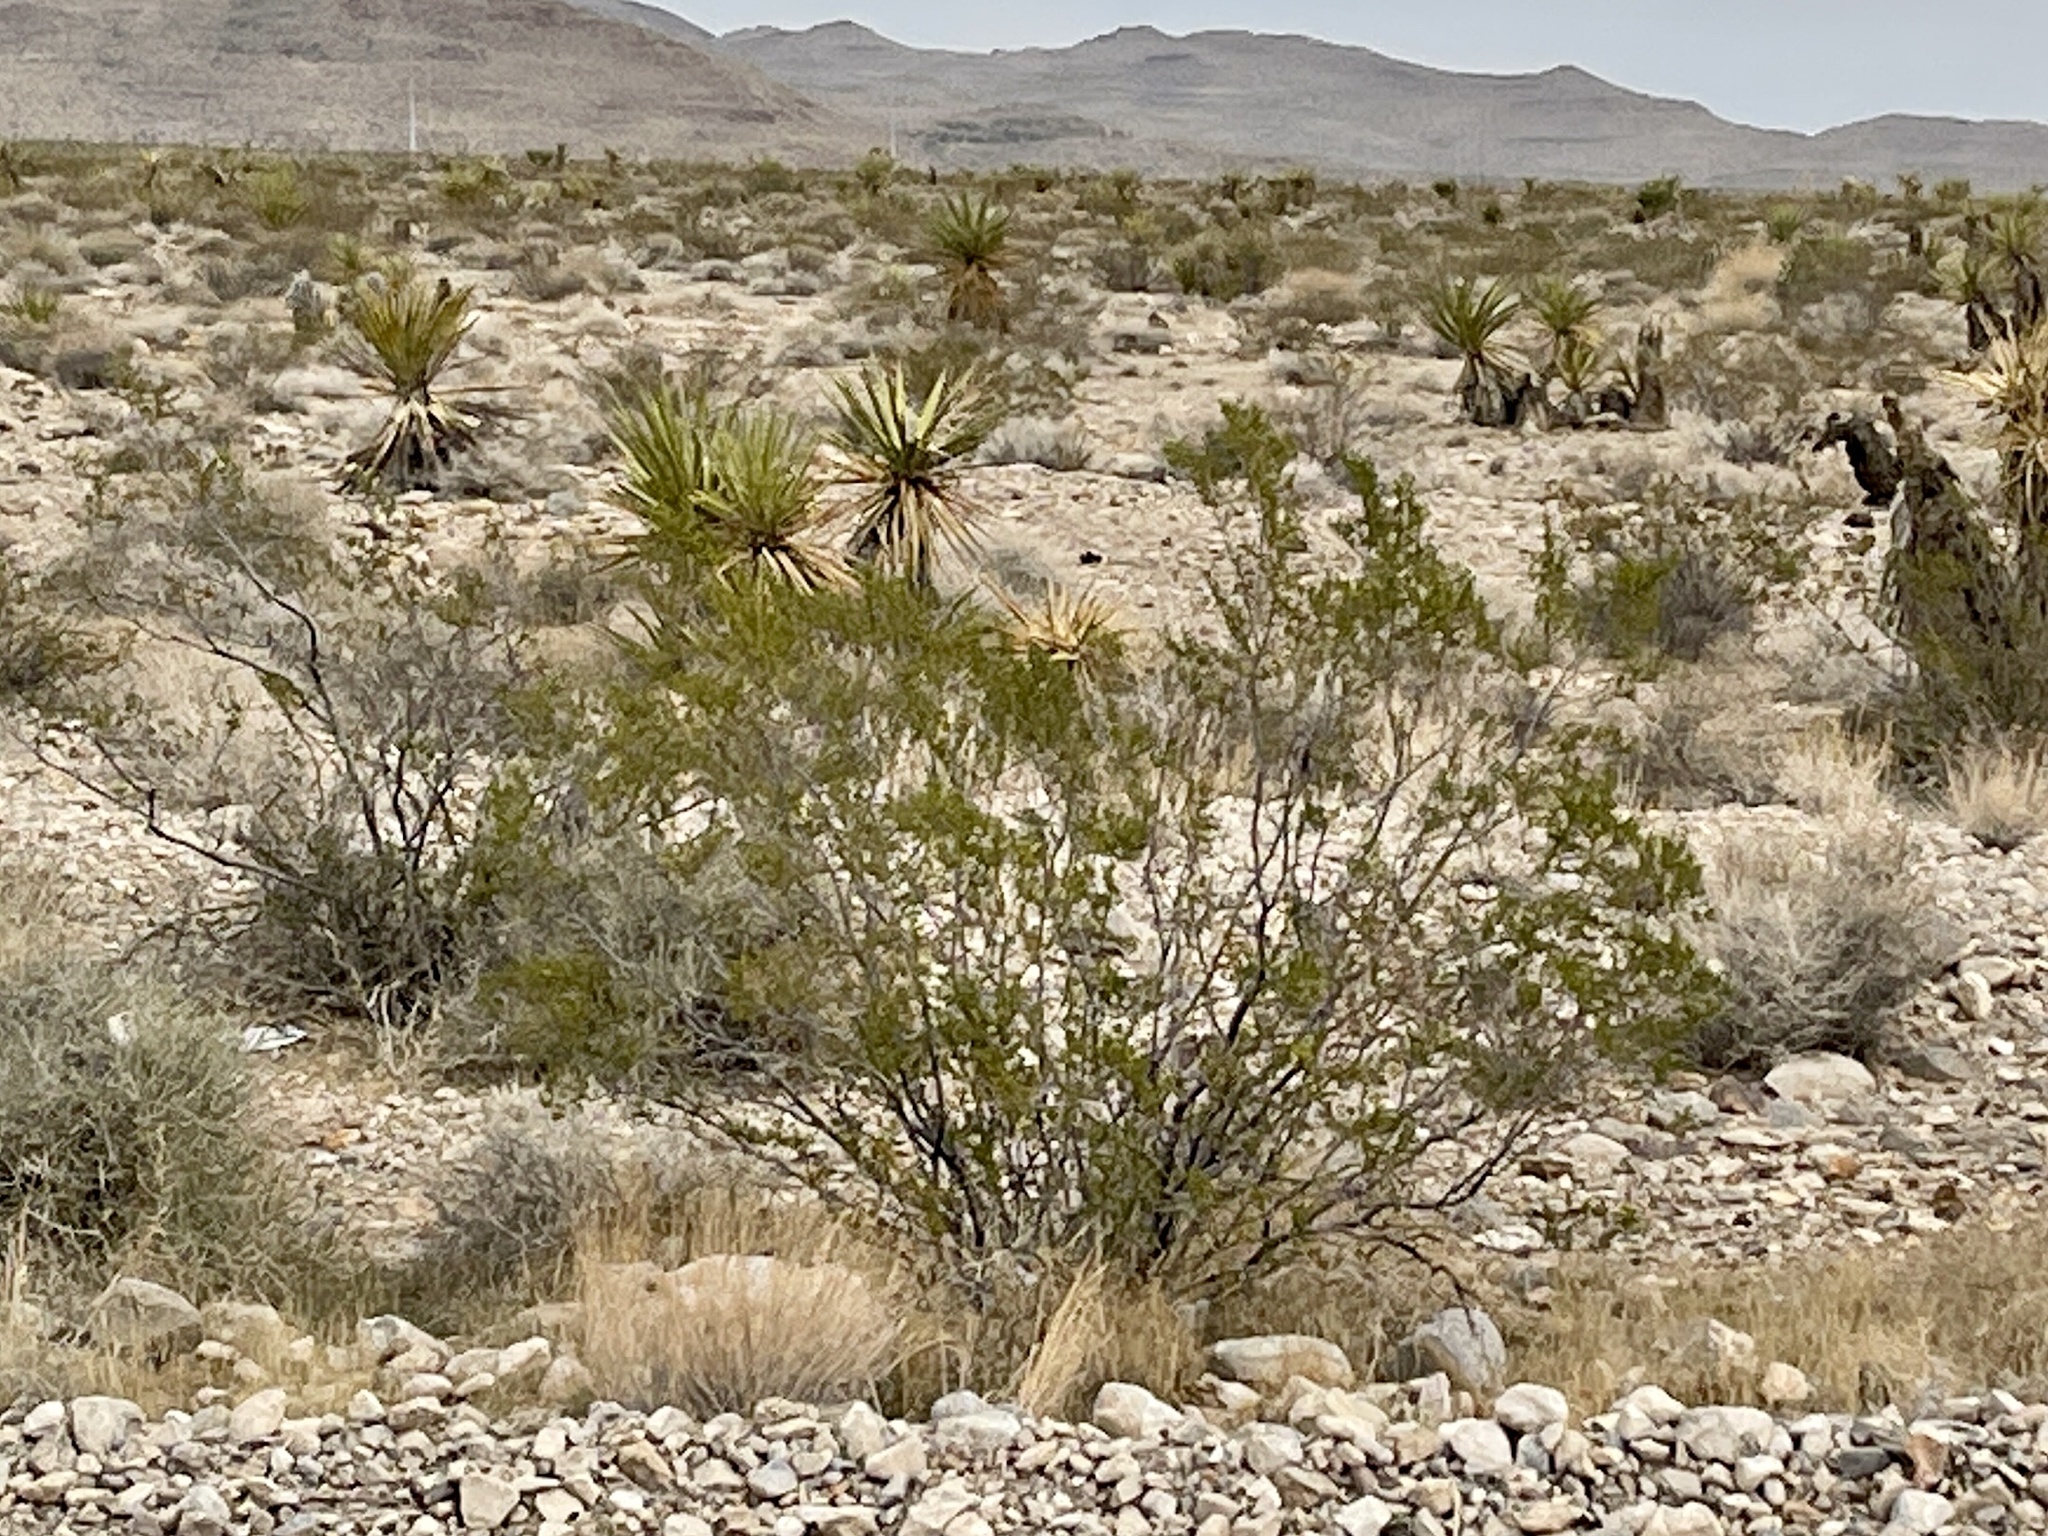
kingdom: Plantae
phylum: Tracheophyta
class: Magnoliopsida
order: Zygophyllales
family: Zygophyllaceae
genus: Larrea
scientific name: Larrea tridentata
